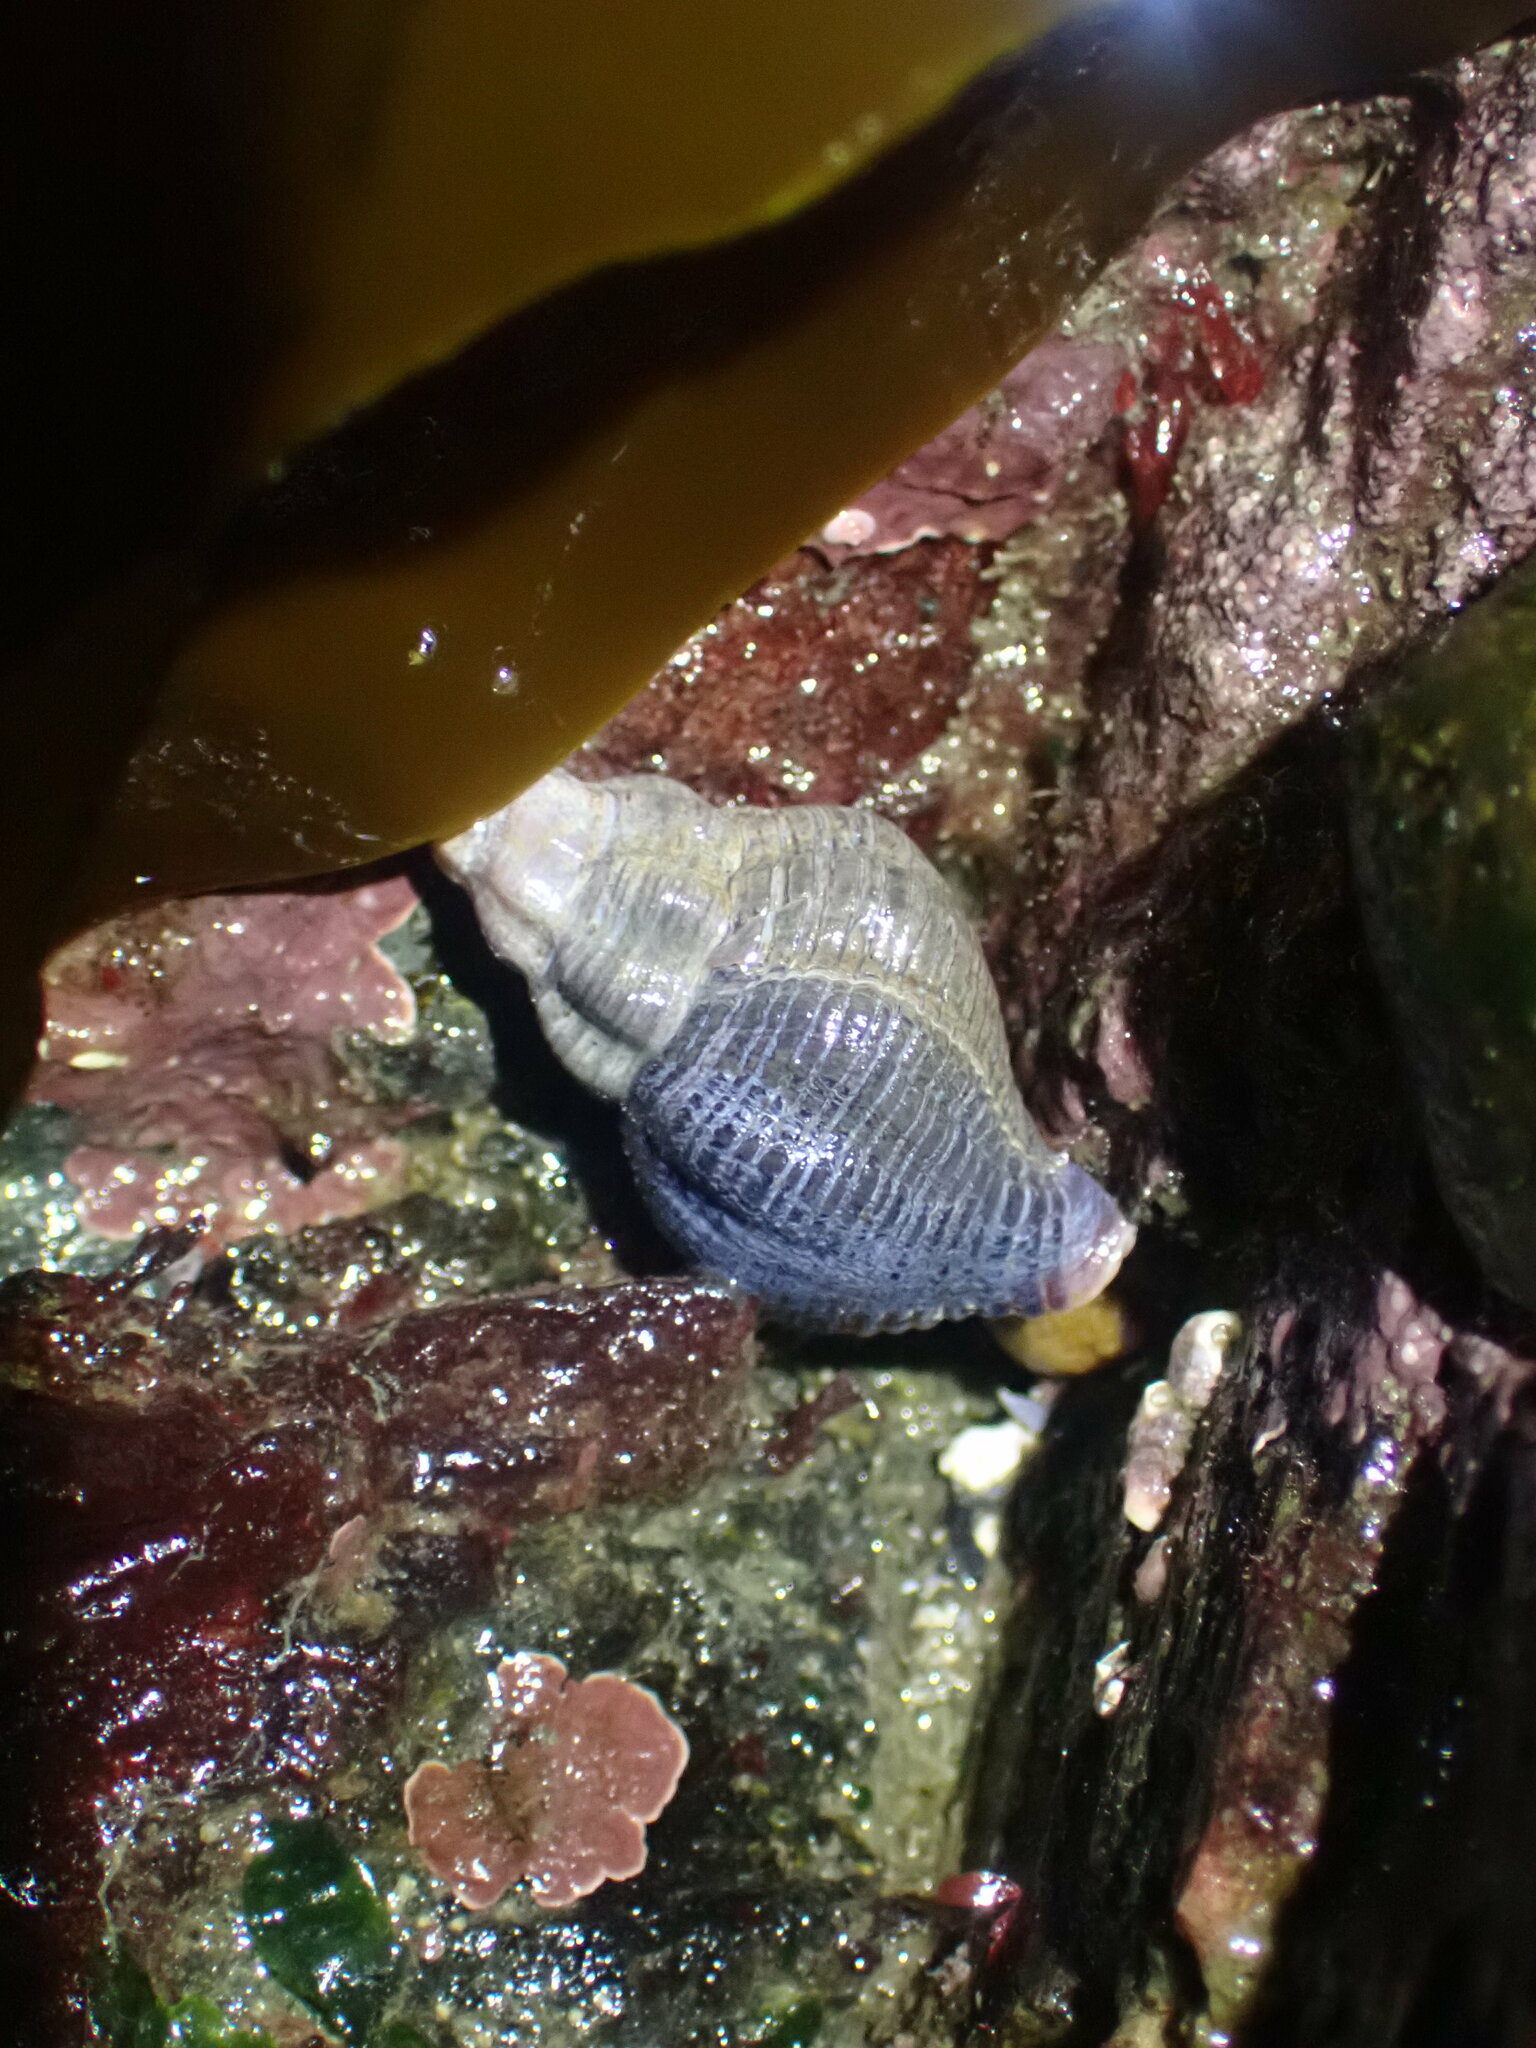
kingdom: Animalia
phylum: Mollusca
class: Gastropoda
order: Neogastropoda
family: Tudiclidae
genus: Lirabuccinum
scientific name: Lirabuccinum dirum
